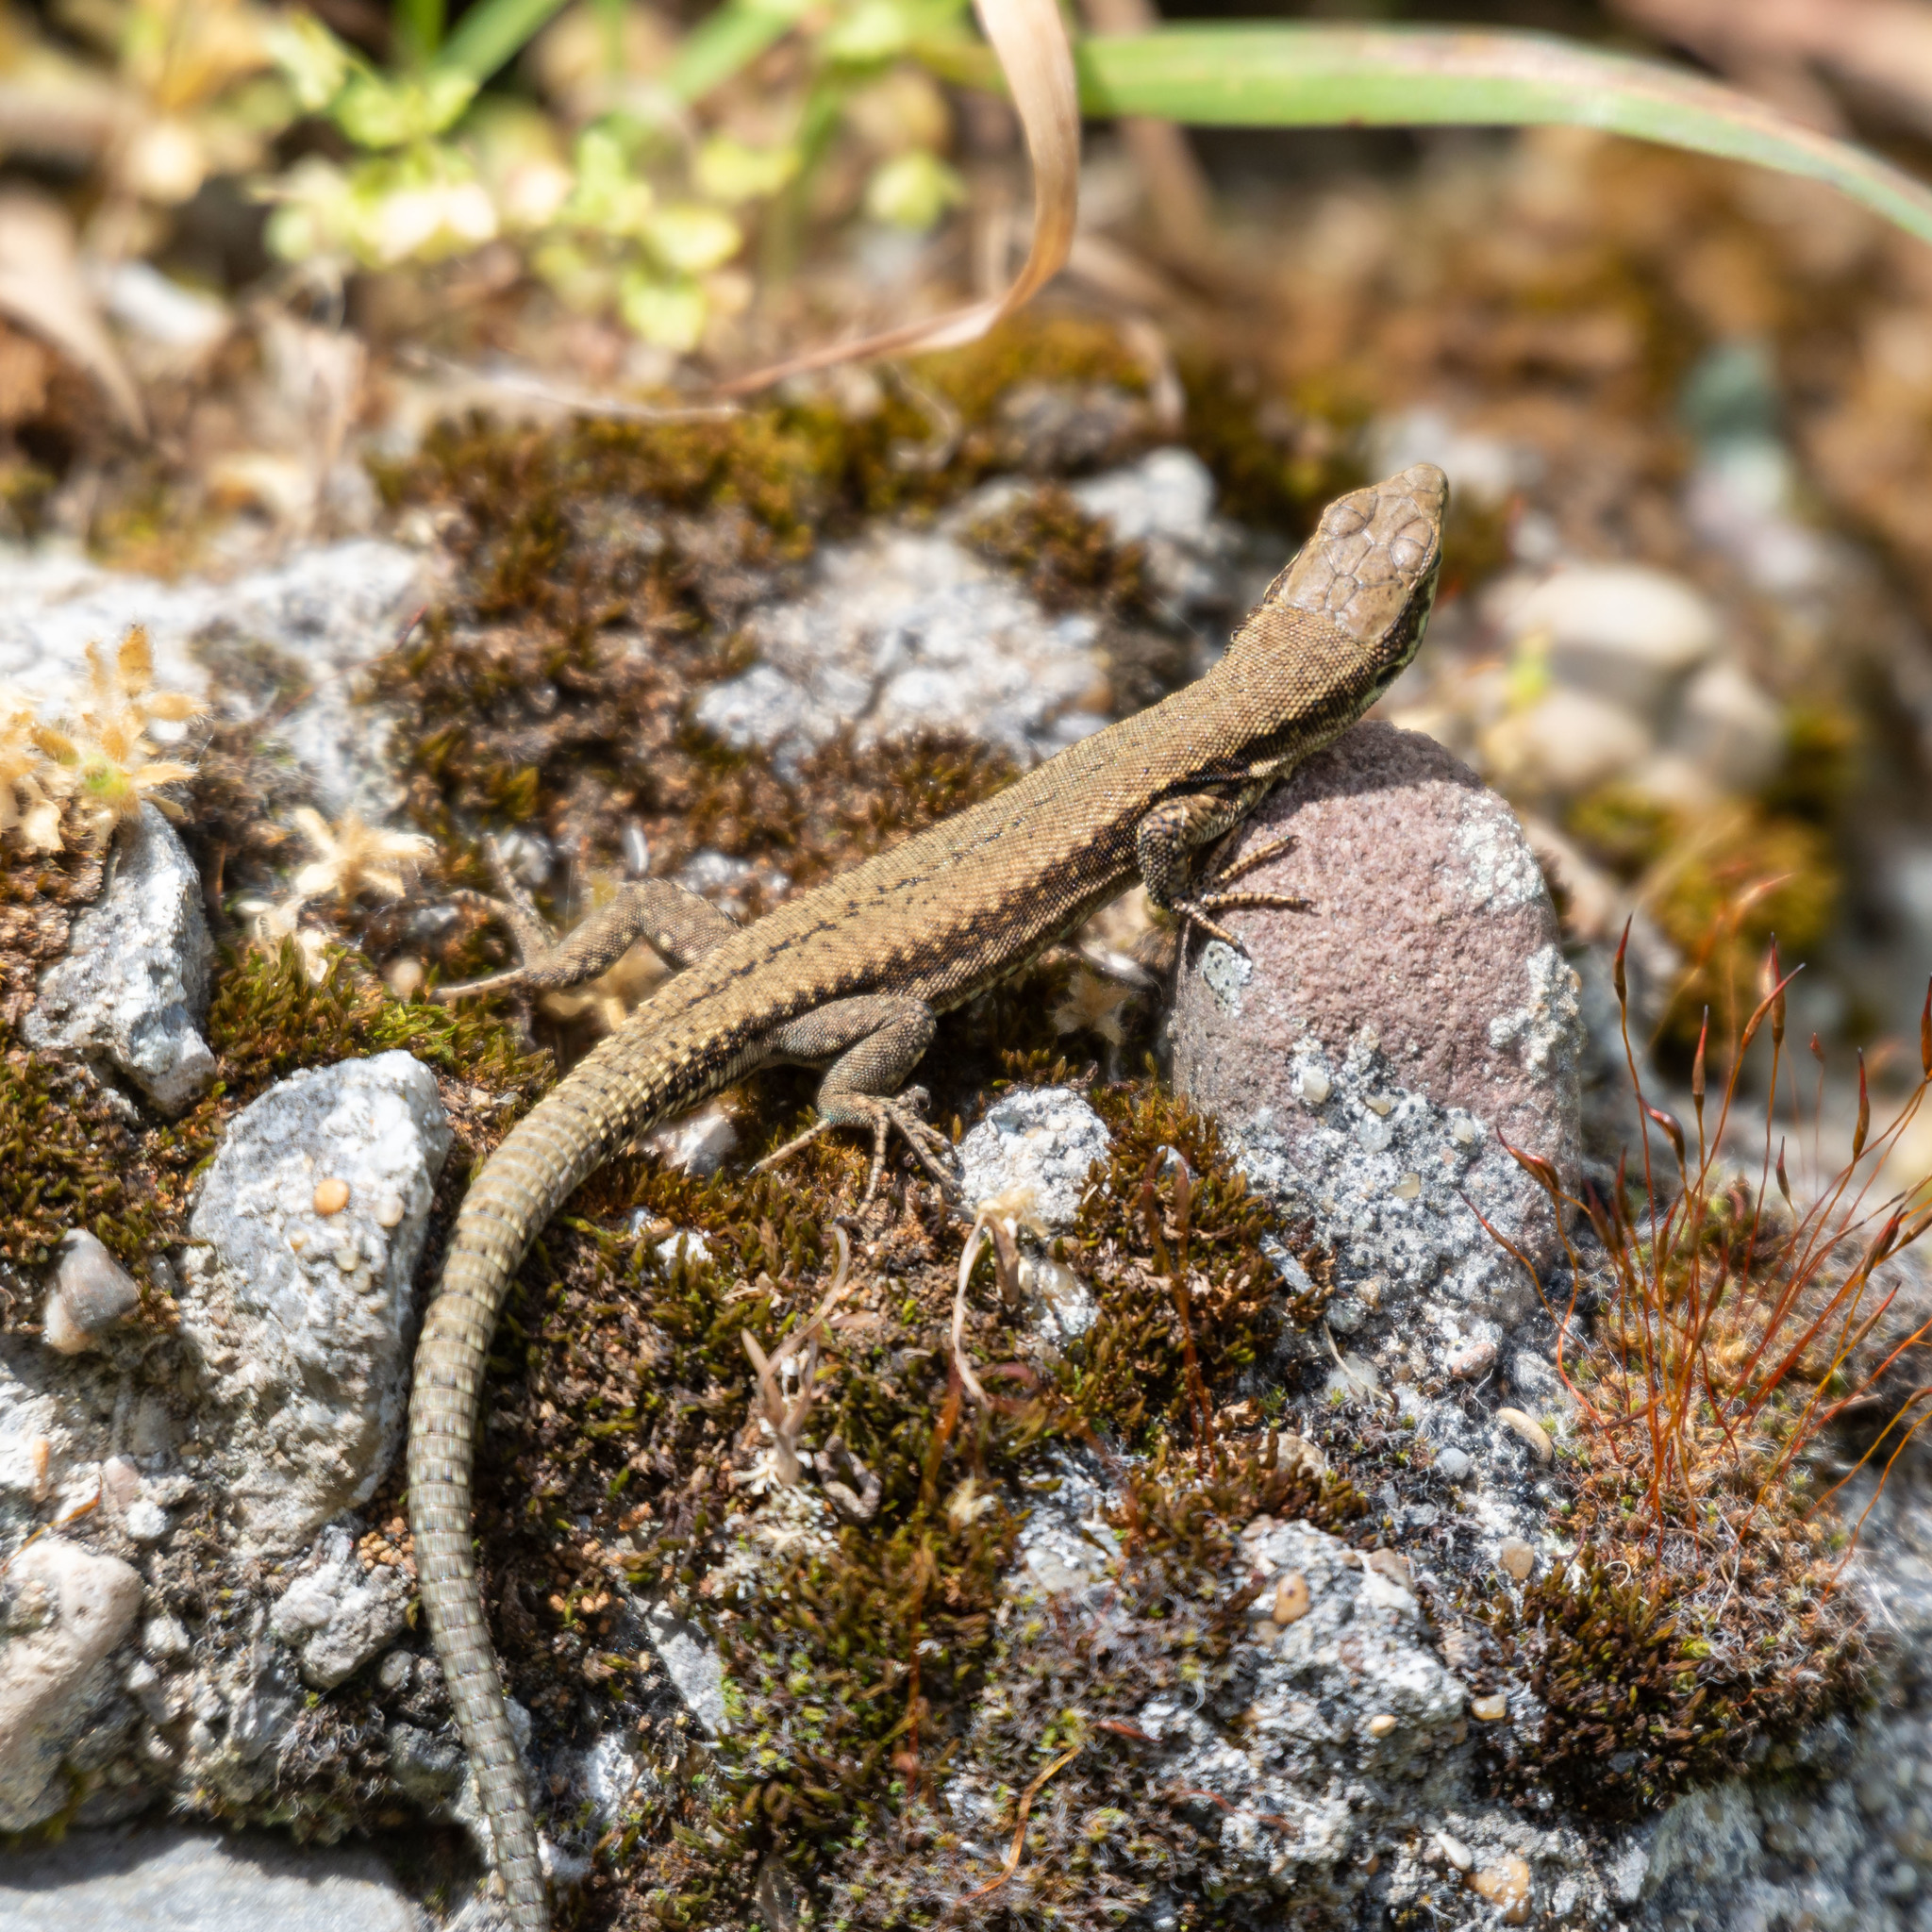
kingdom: Animalia
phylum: Chordata
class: Squamata
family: Lacertidae
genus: Podarcis
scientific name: Podarcis muralis
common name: Common wall lizard
